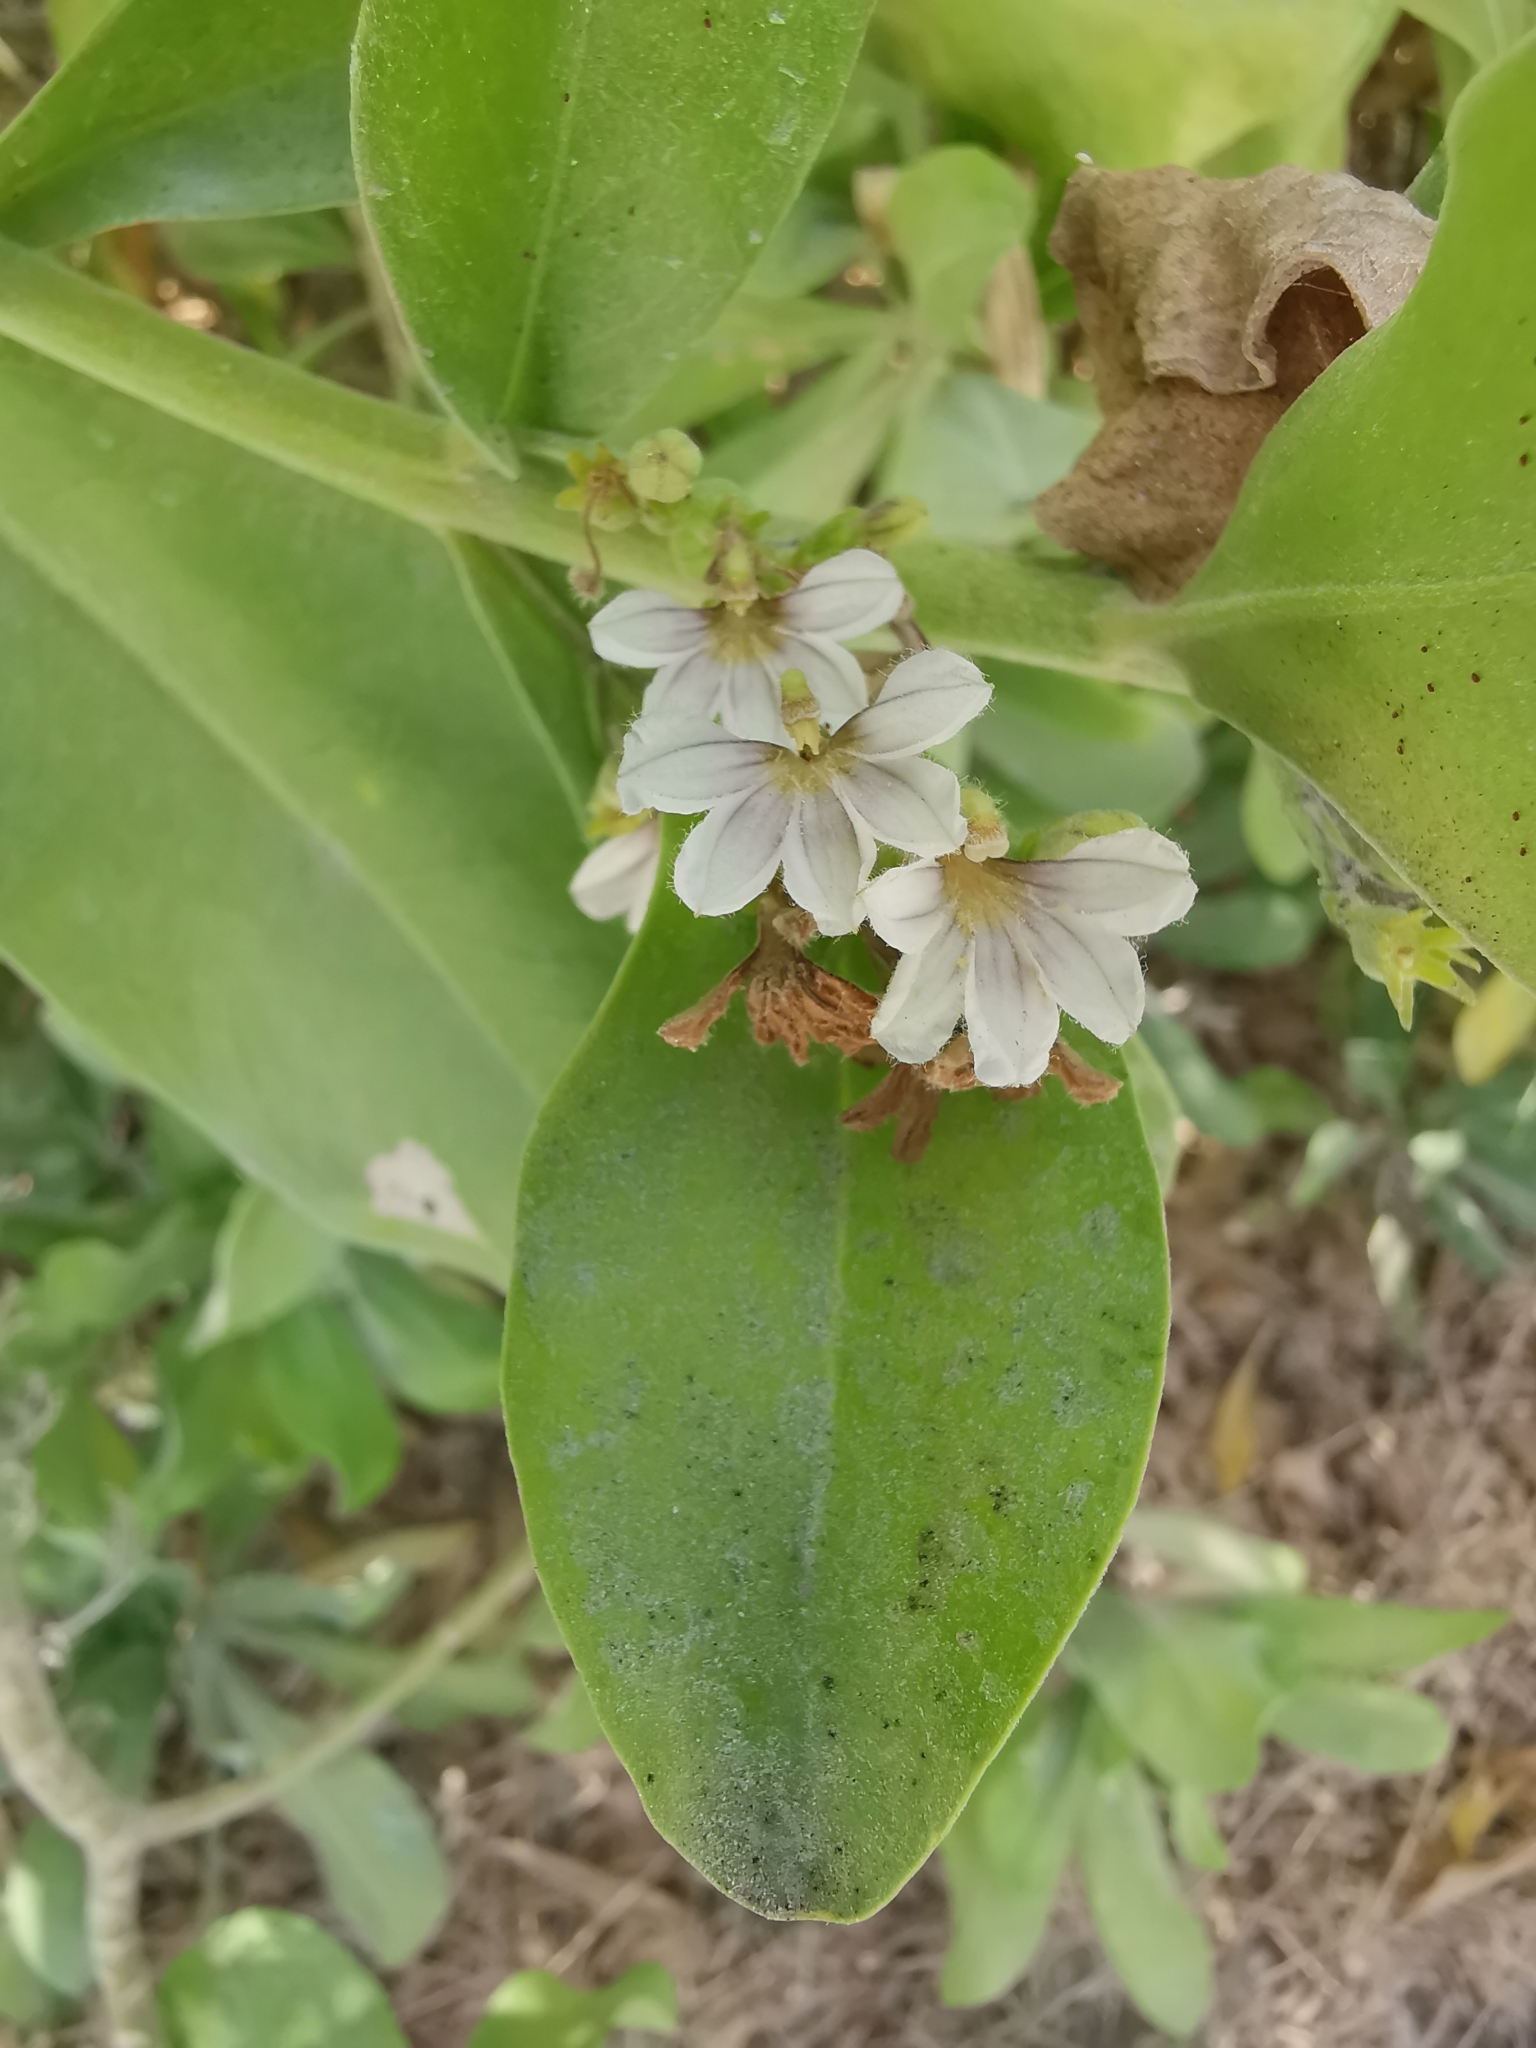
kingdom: Plantae
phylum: Tracheophyta
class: Magnoliopsida
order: Asterales
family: Goodeniaceae
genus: Scaevola
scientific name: Scaevola taccada
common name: Sea lettucetree
